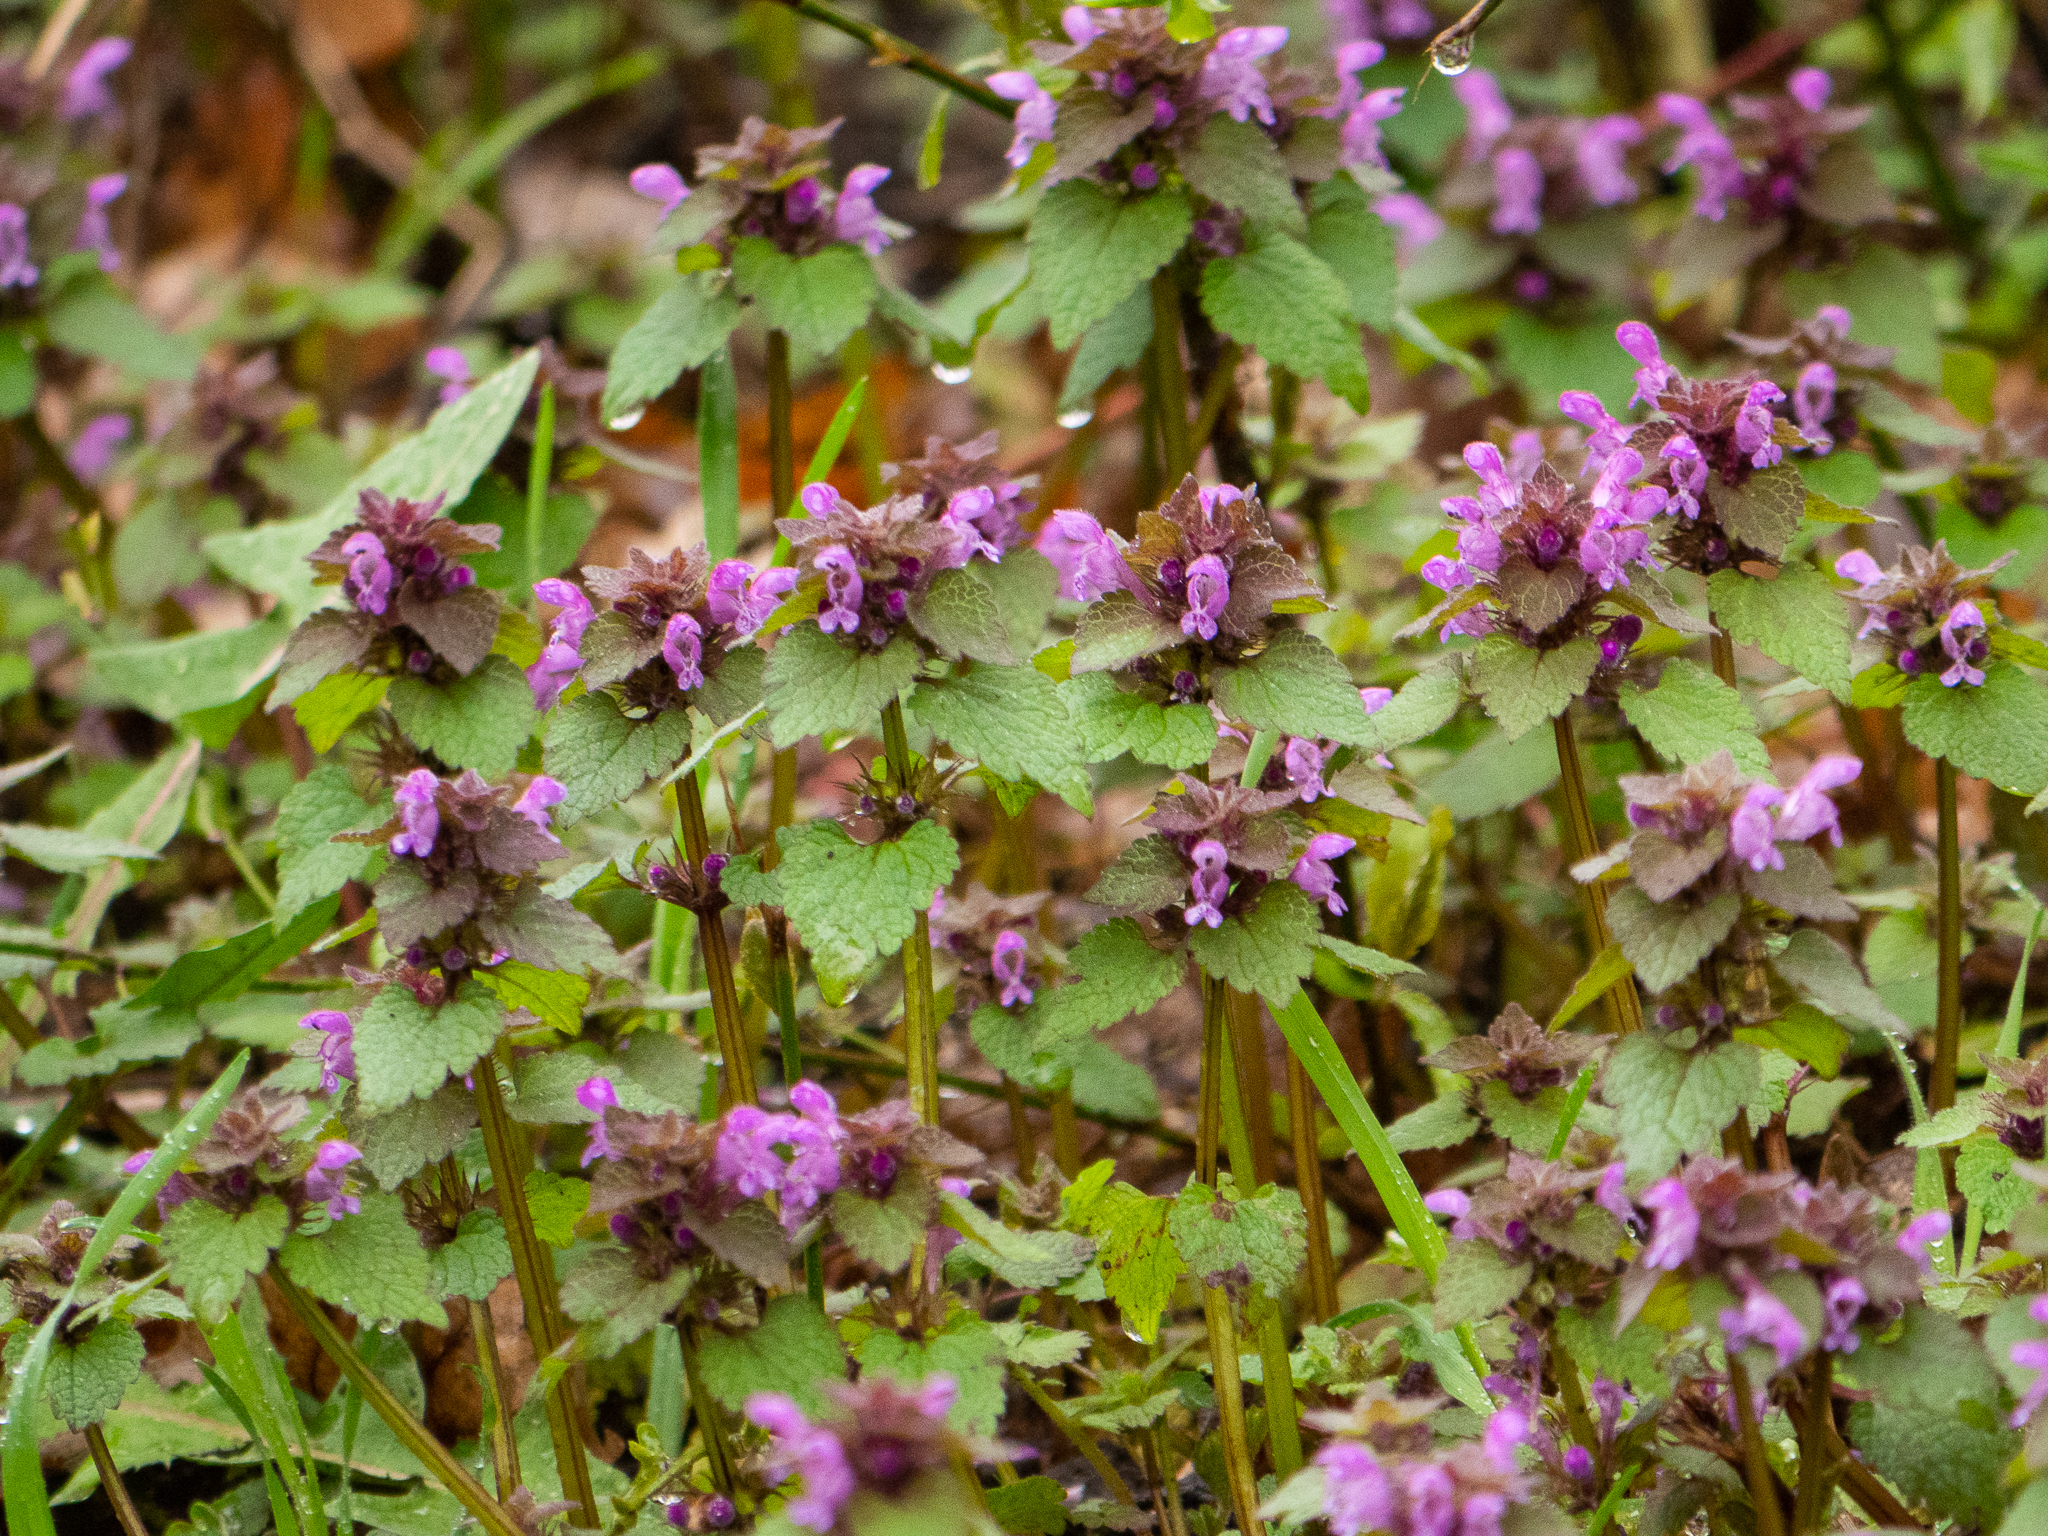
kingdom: Plantae
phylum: Tracheophyta
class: Magnoliopsida
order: Lamiales
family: Lamiaceae
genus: Lamium
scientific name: Lamium purpureum
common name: Red dead-nettle
